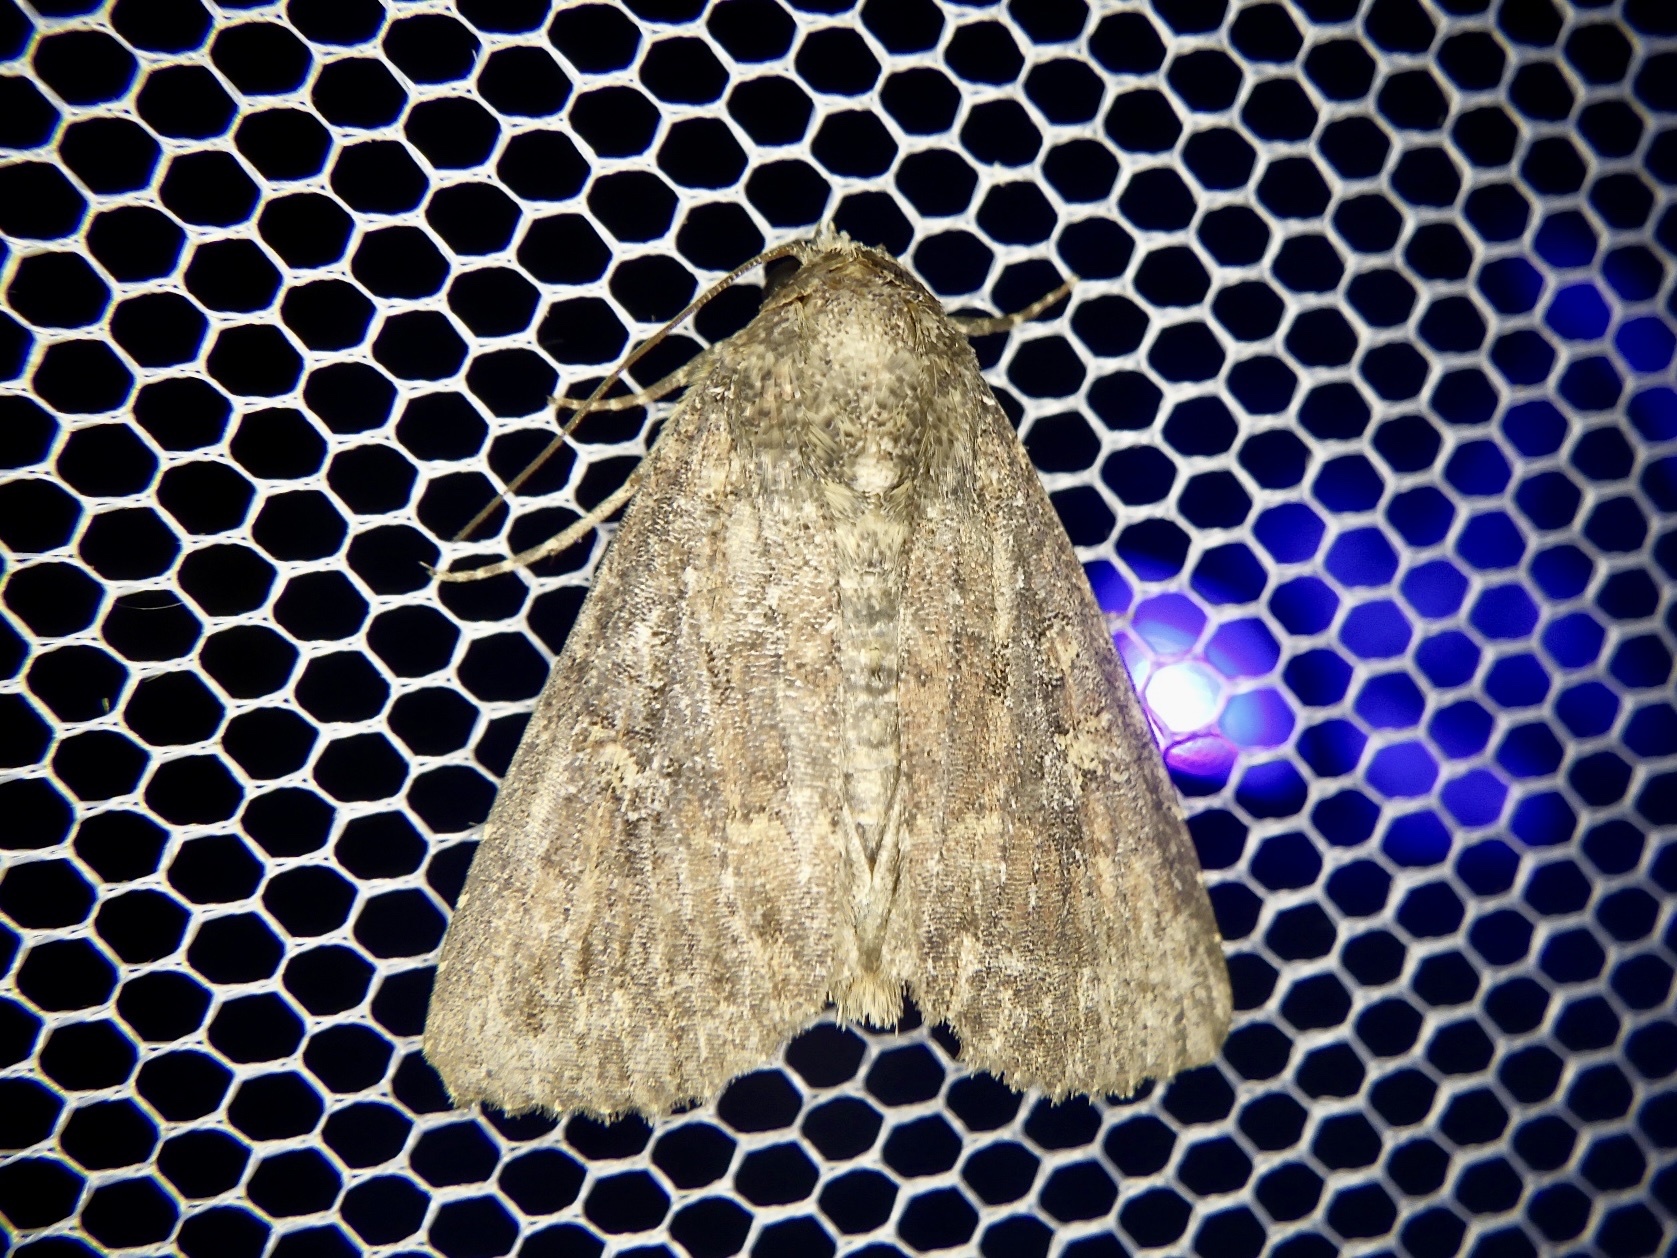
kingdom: Animalia
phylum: Arthropoda
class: Insecta
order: Lepidoptera
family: Noctuidae
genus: Condica
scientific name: Condica illecta
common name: Cutworm
